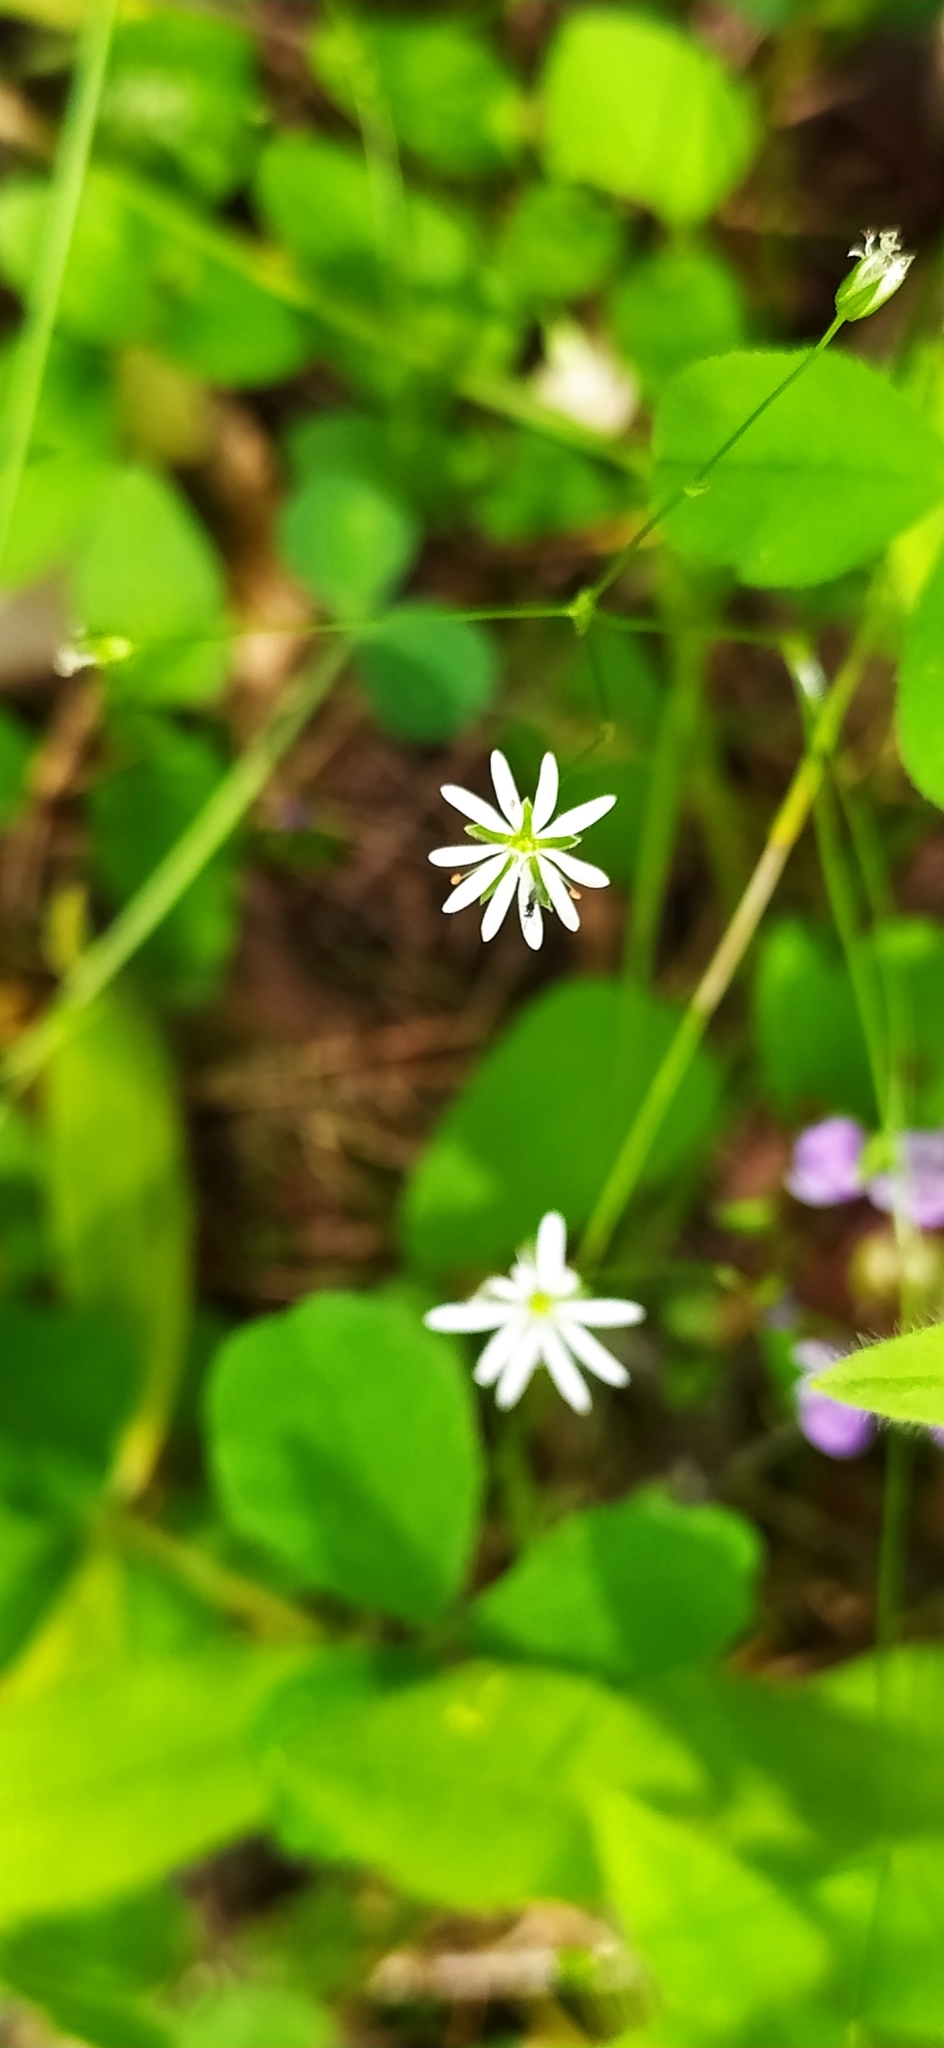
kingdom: Plantae
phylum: Tracheophyta
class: Magnoliopsida
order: Caryophyllales
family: Caryophyllaceae
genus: Stellaria
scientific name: Stellaria graminea
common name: Grass-like starwort
